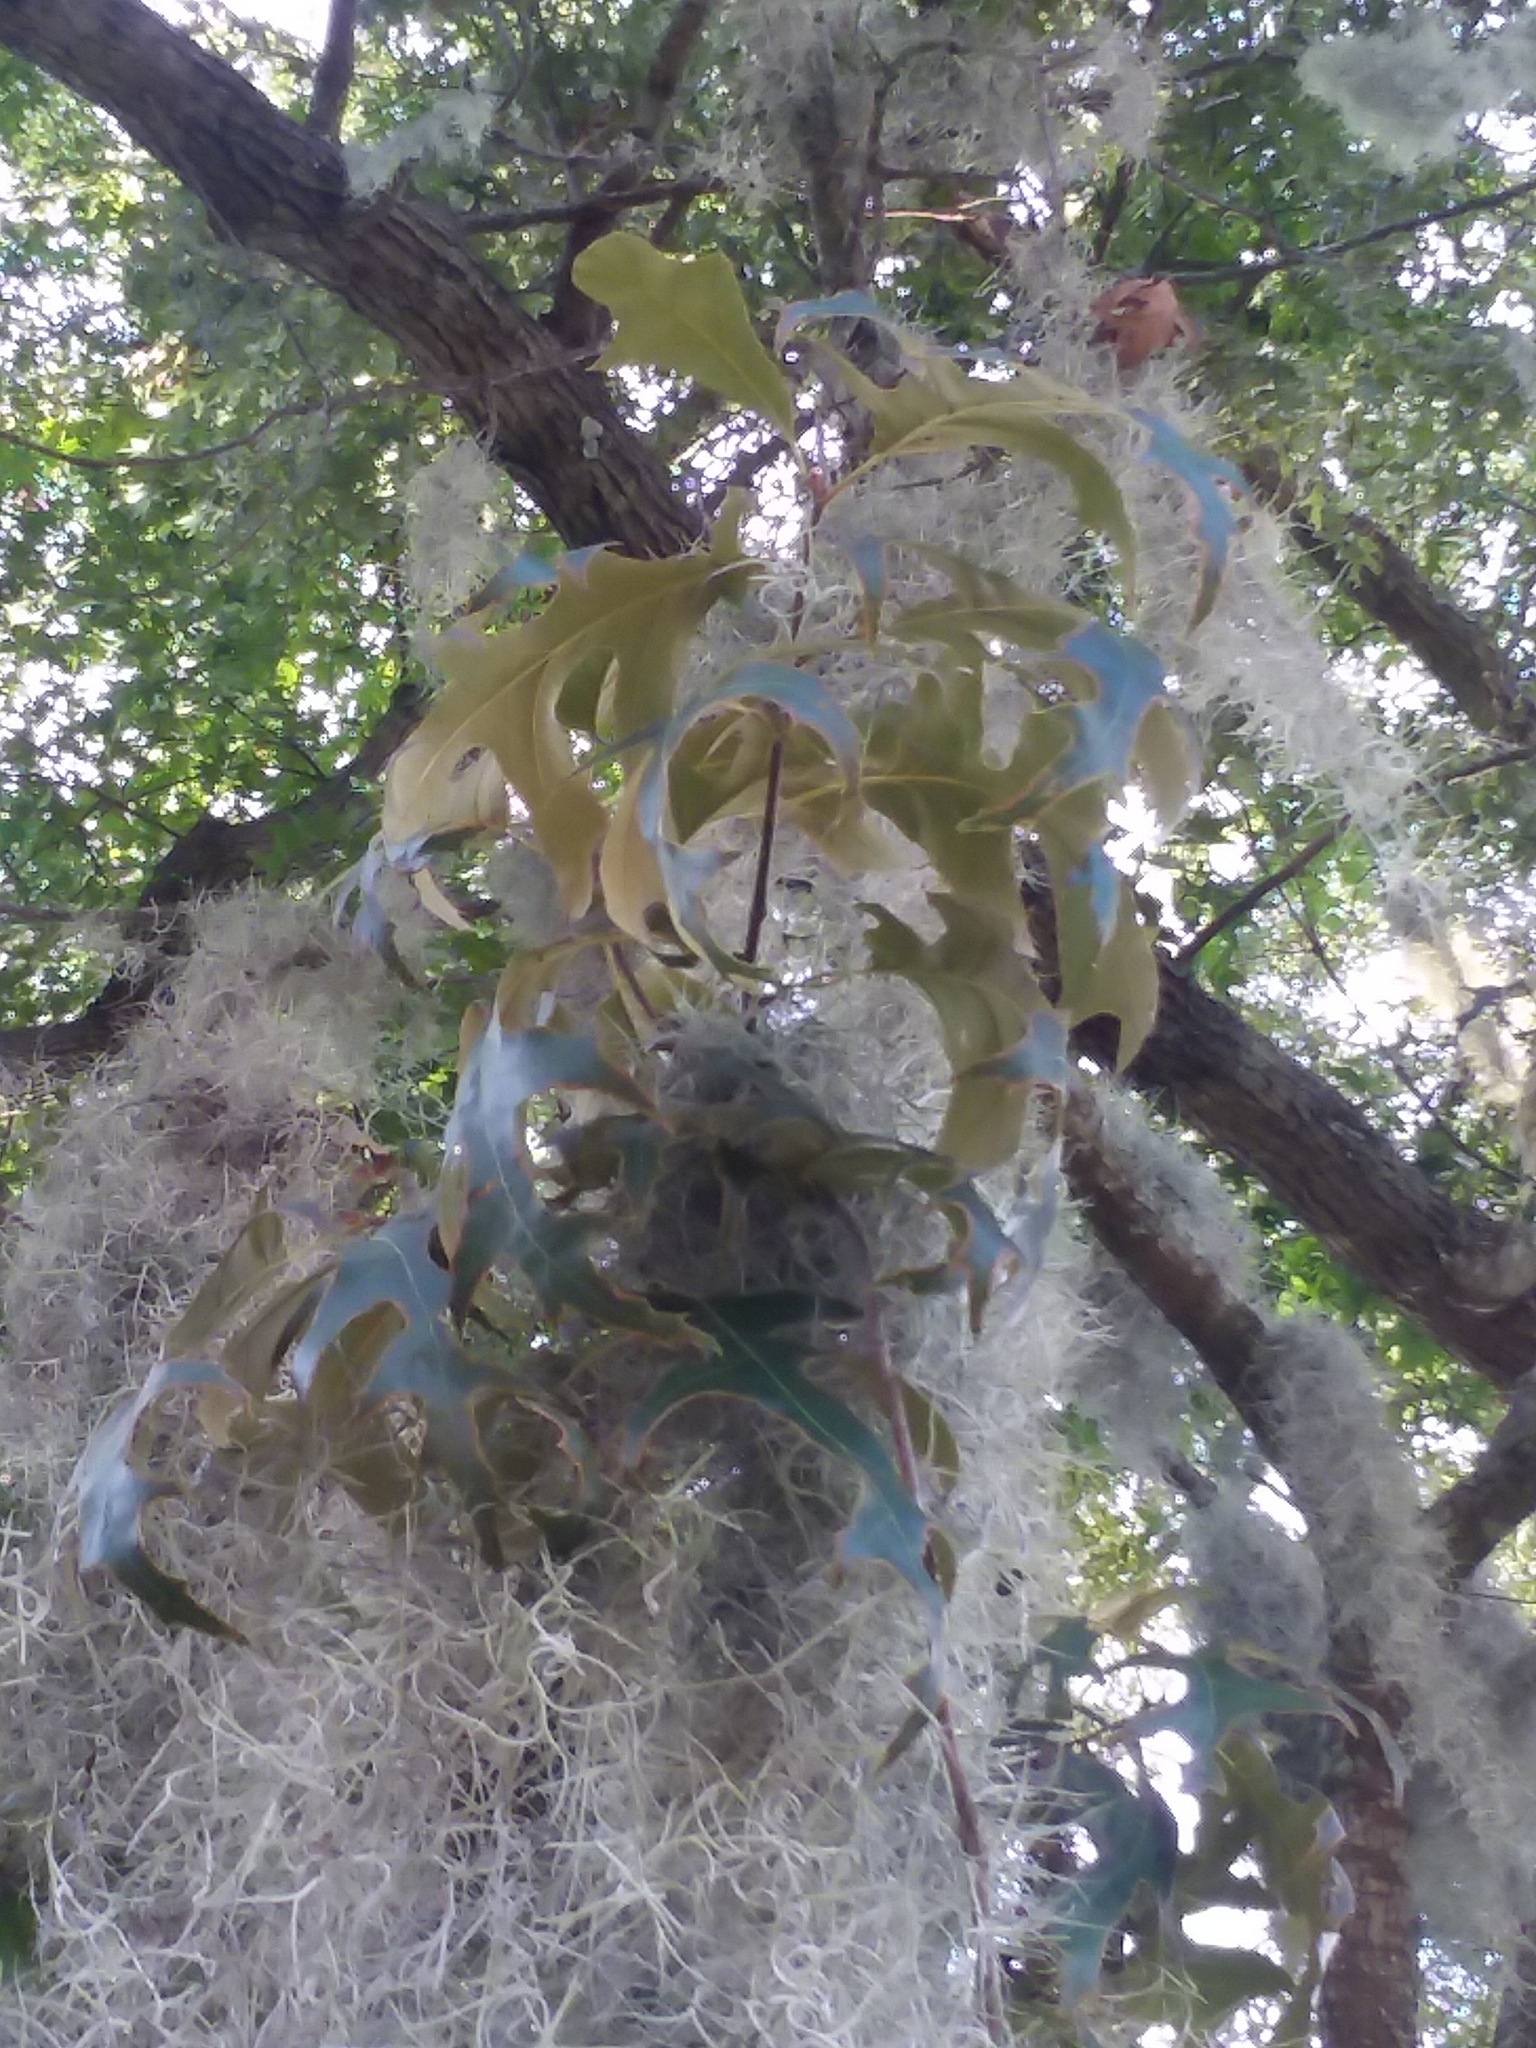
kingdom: Plantae
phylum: Tracheophyta
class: Liliopsida
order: Poales
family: Bromeliaceae
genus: Tillandsia
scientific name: Tillandsia usneoides
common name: Spanish moss
